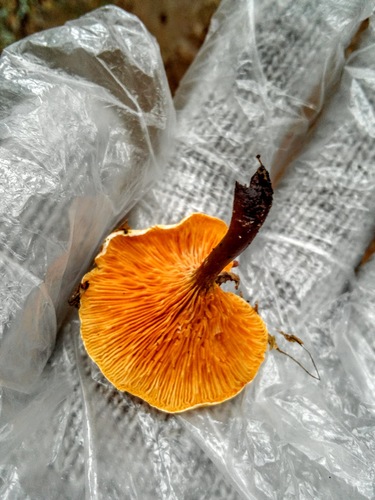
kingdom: Fungi
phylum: Basidiomycota
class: Agaricomycetes
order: Boletales
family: Hygrophoropsidaceae
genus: Hygrophoropsis
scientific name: Hygrophoropsis aurantiaca
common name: False chanterelle
